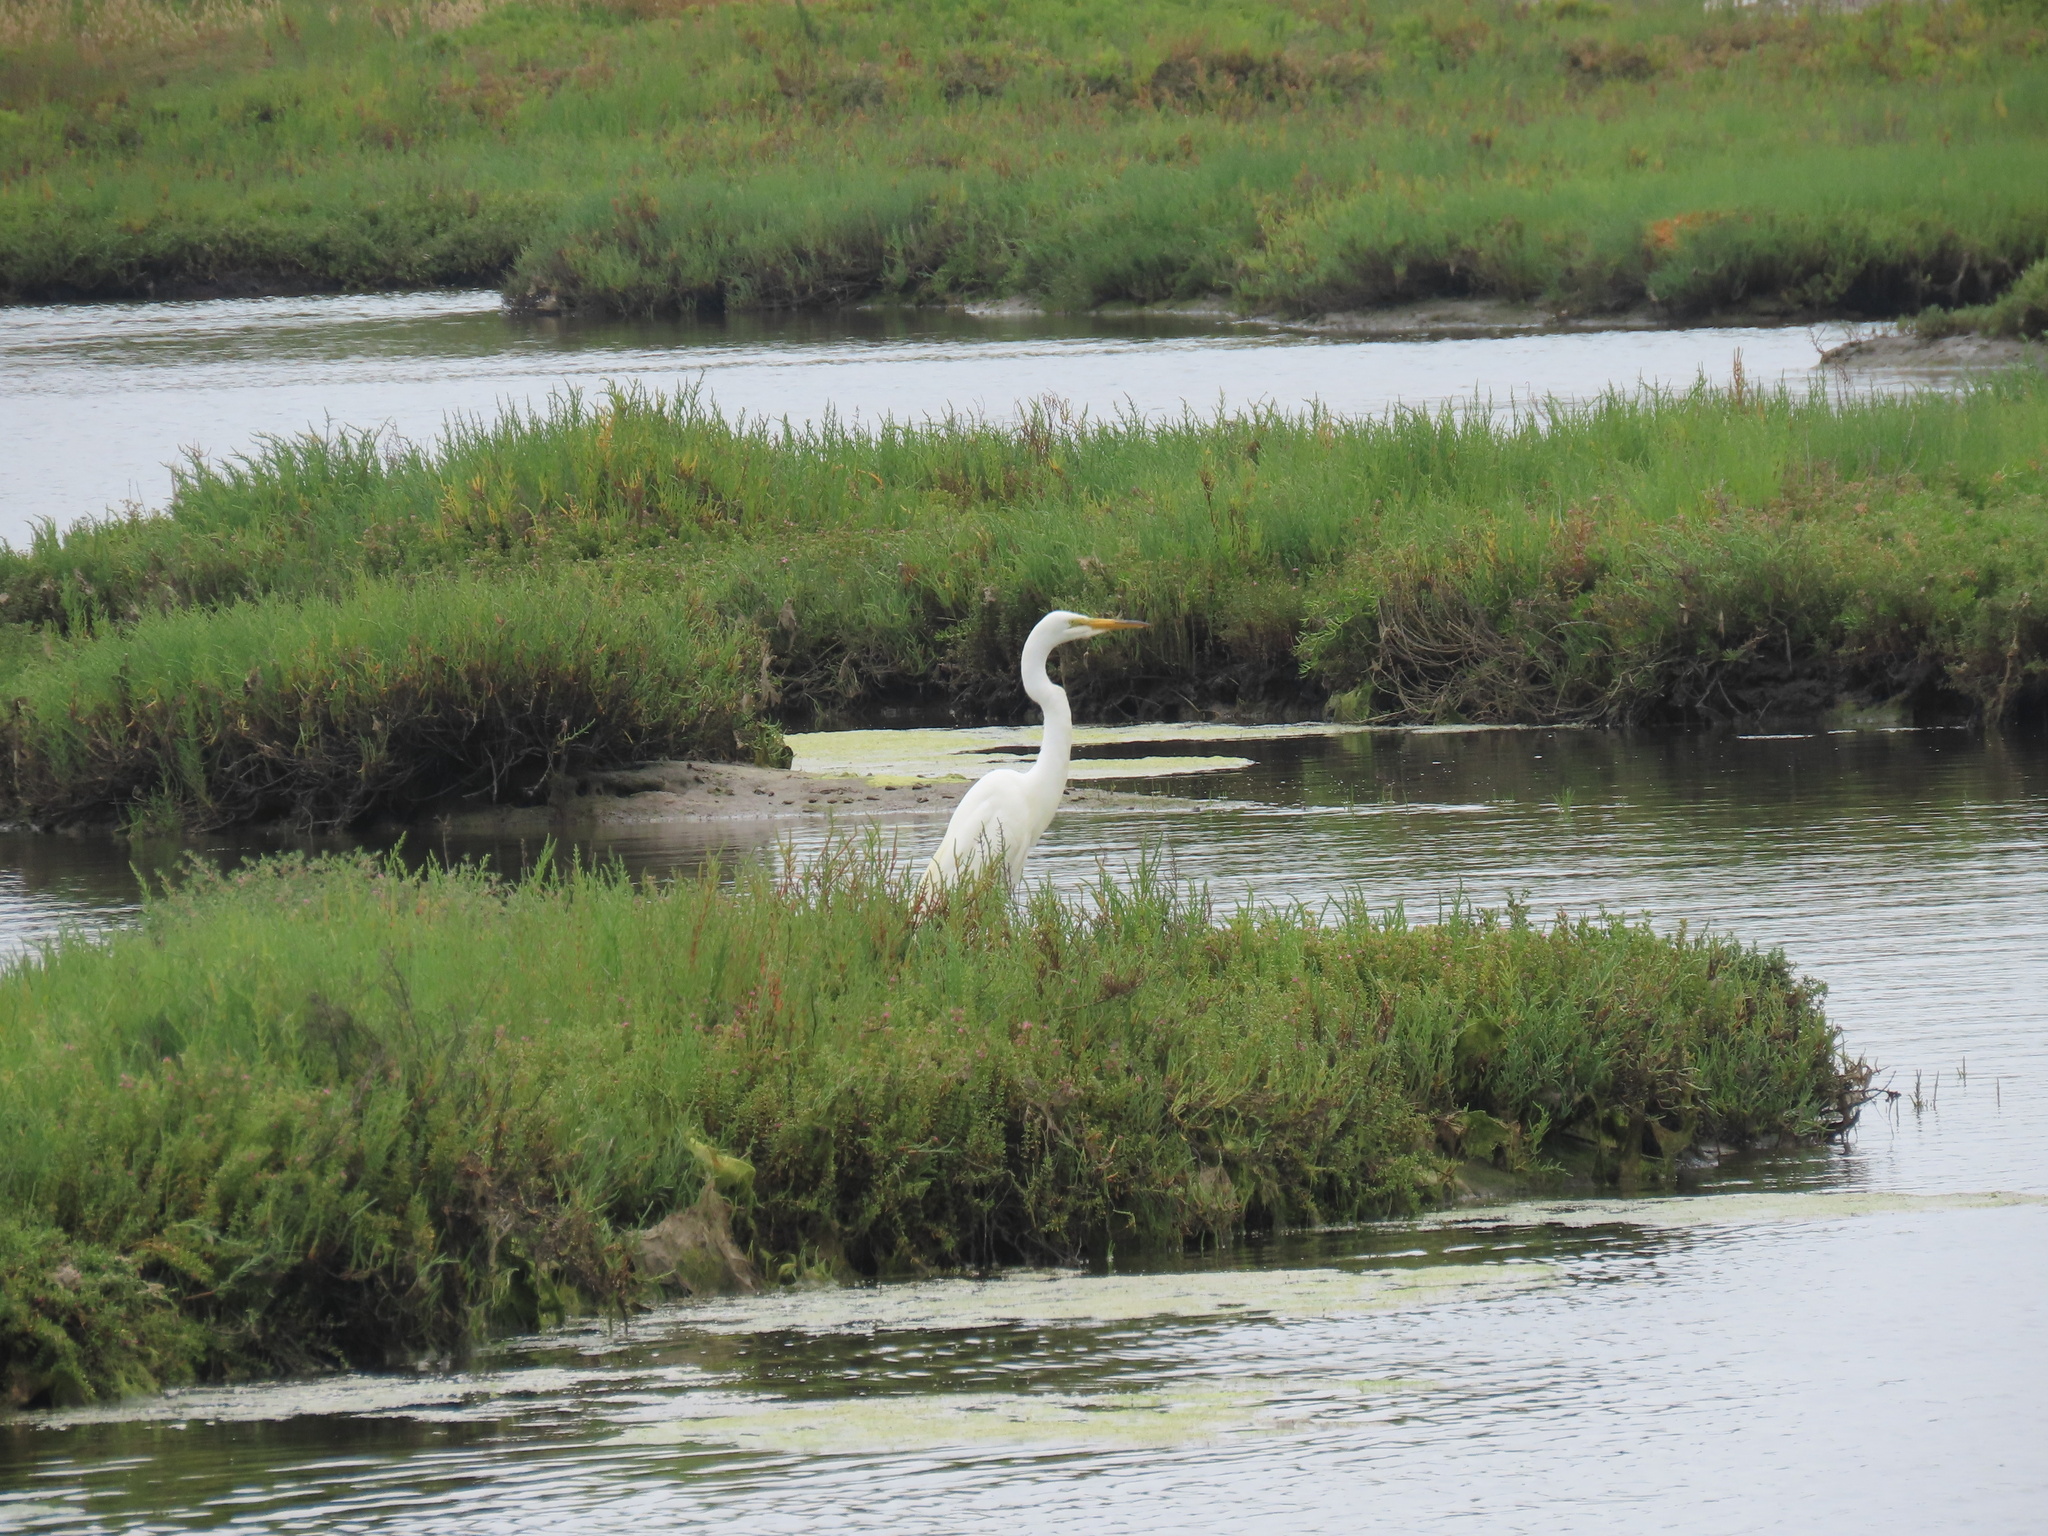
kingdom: Animalia
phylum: Chordata
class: Aves
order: Pelecaniformes
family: Ardeidae
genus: Ardea
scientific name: Ardea alba
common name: Great egret
